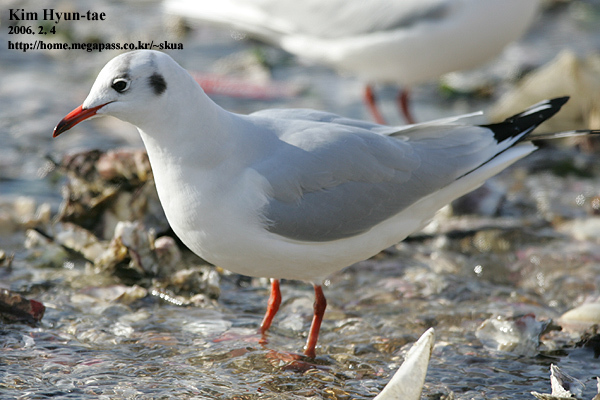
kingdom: Animalia
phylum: Chordata
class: Aves
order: Charadriiformes
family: Laridae
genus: Chroicocephalus
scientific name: Chroicocephalus ridibundus
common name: Black-headed gull
